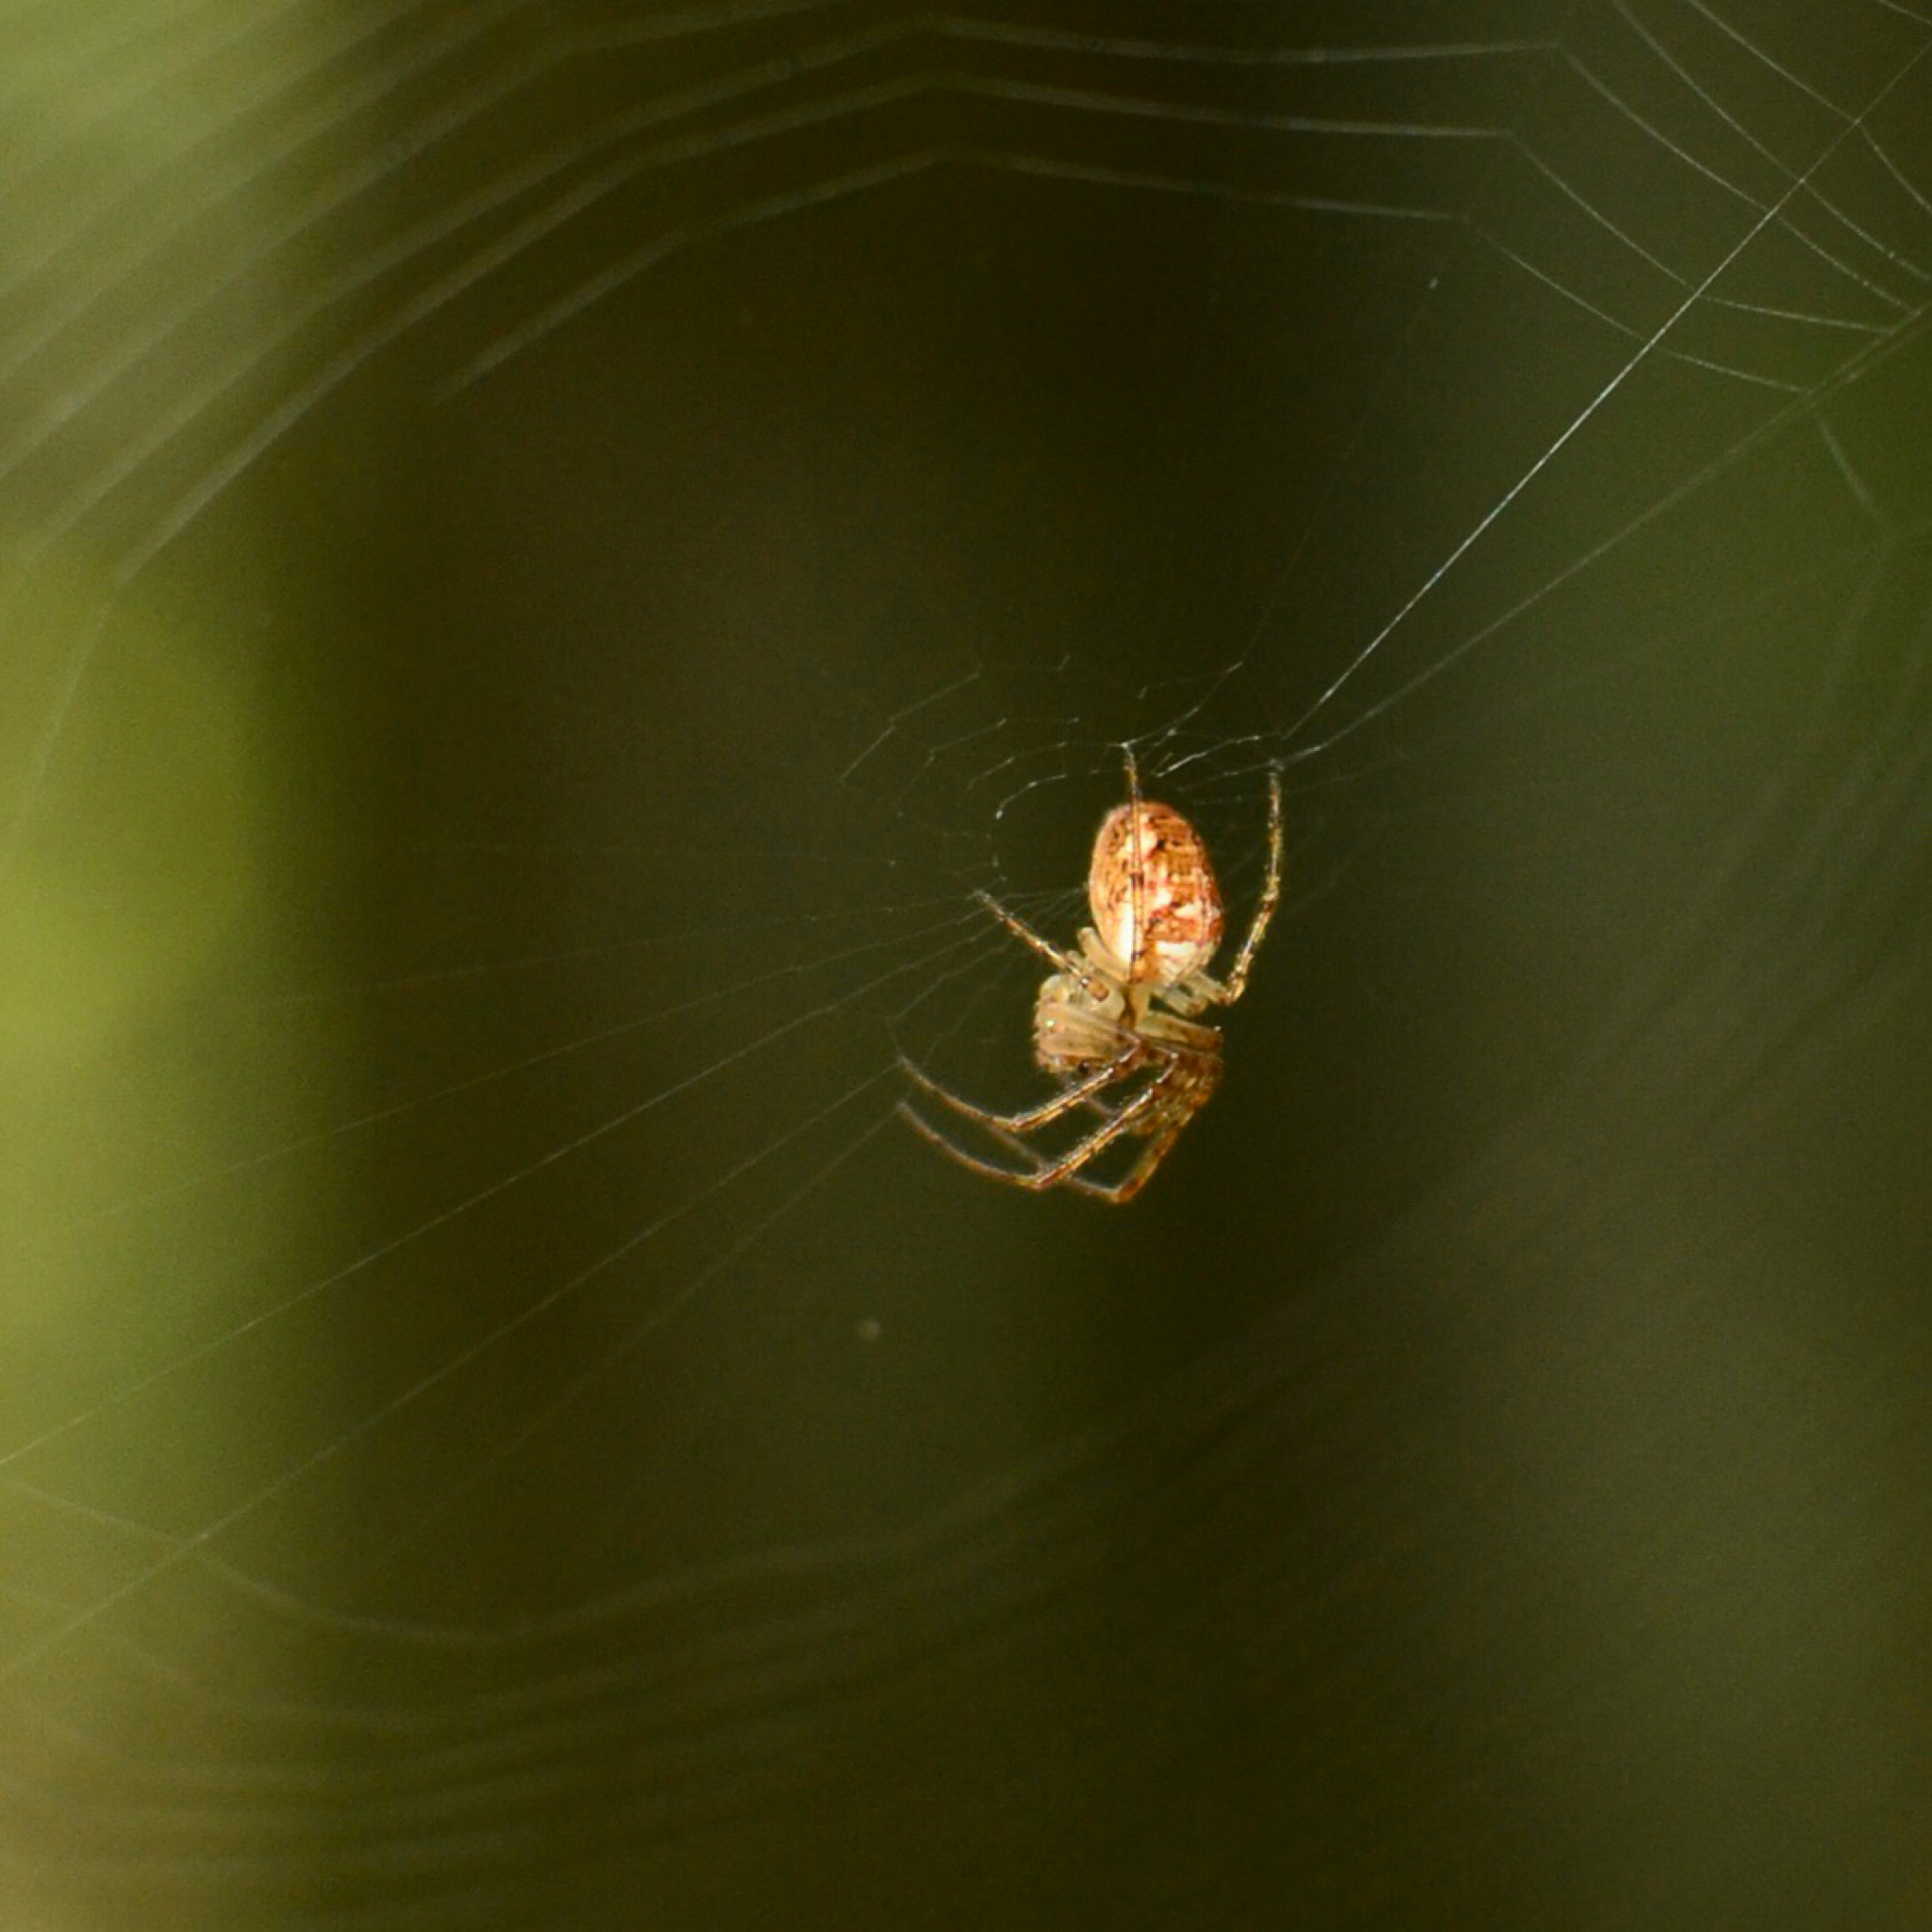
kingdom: Animalia
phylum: Arthropoda
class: Arachnida
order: Araneae
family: Tetragnathidae
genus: Metellina
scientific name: Metellina
